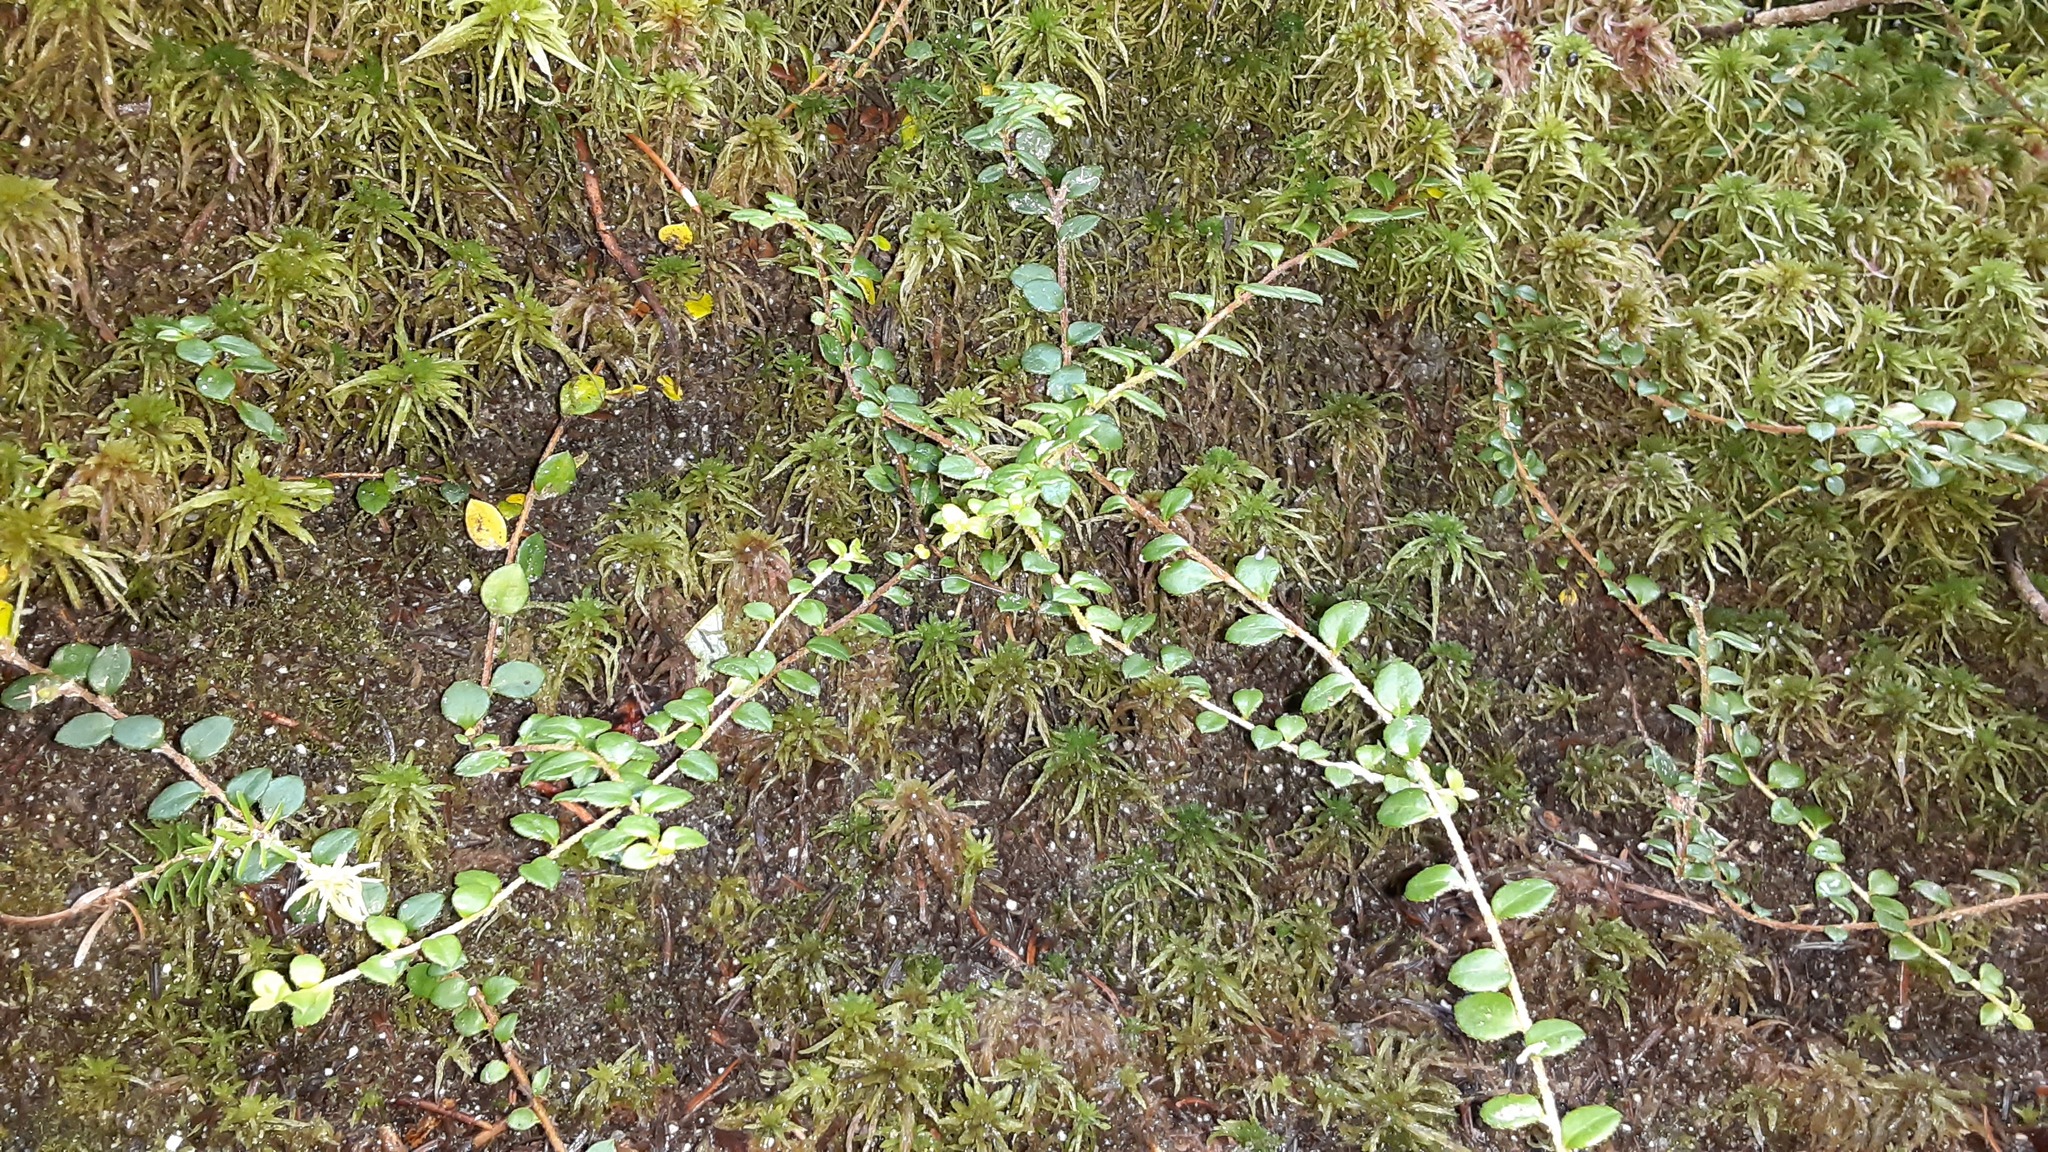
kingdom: Plantae
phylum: Tracheophyta
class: Magnoliopsida
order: Ericales
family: Ericaceae
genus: Gaultheria
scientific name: Gaultheria hispidula
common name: Cancer wintergreen
